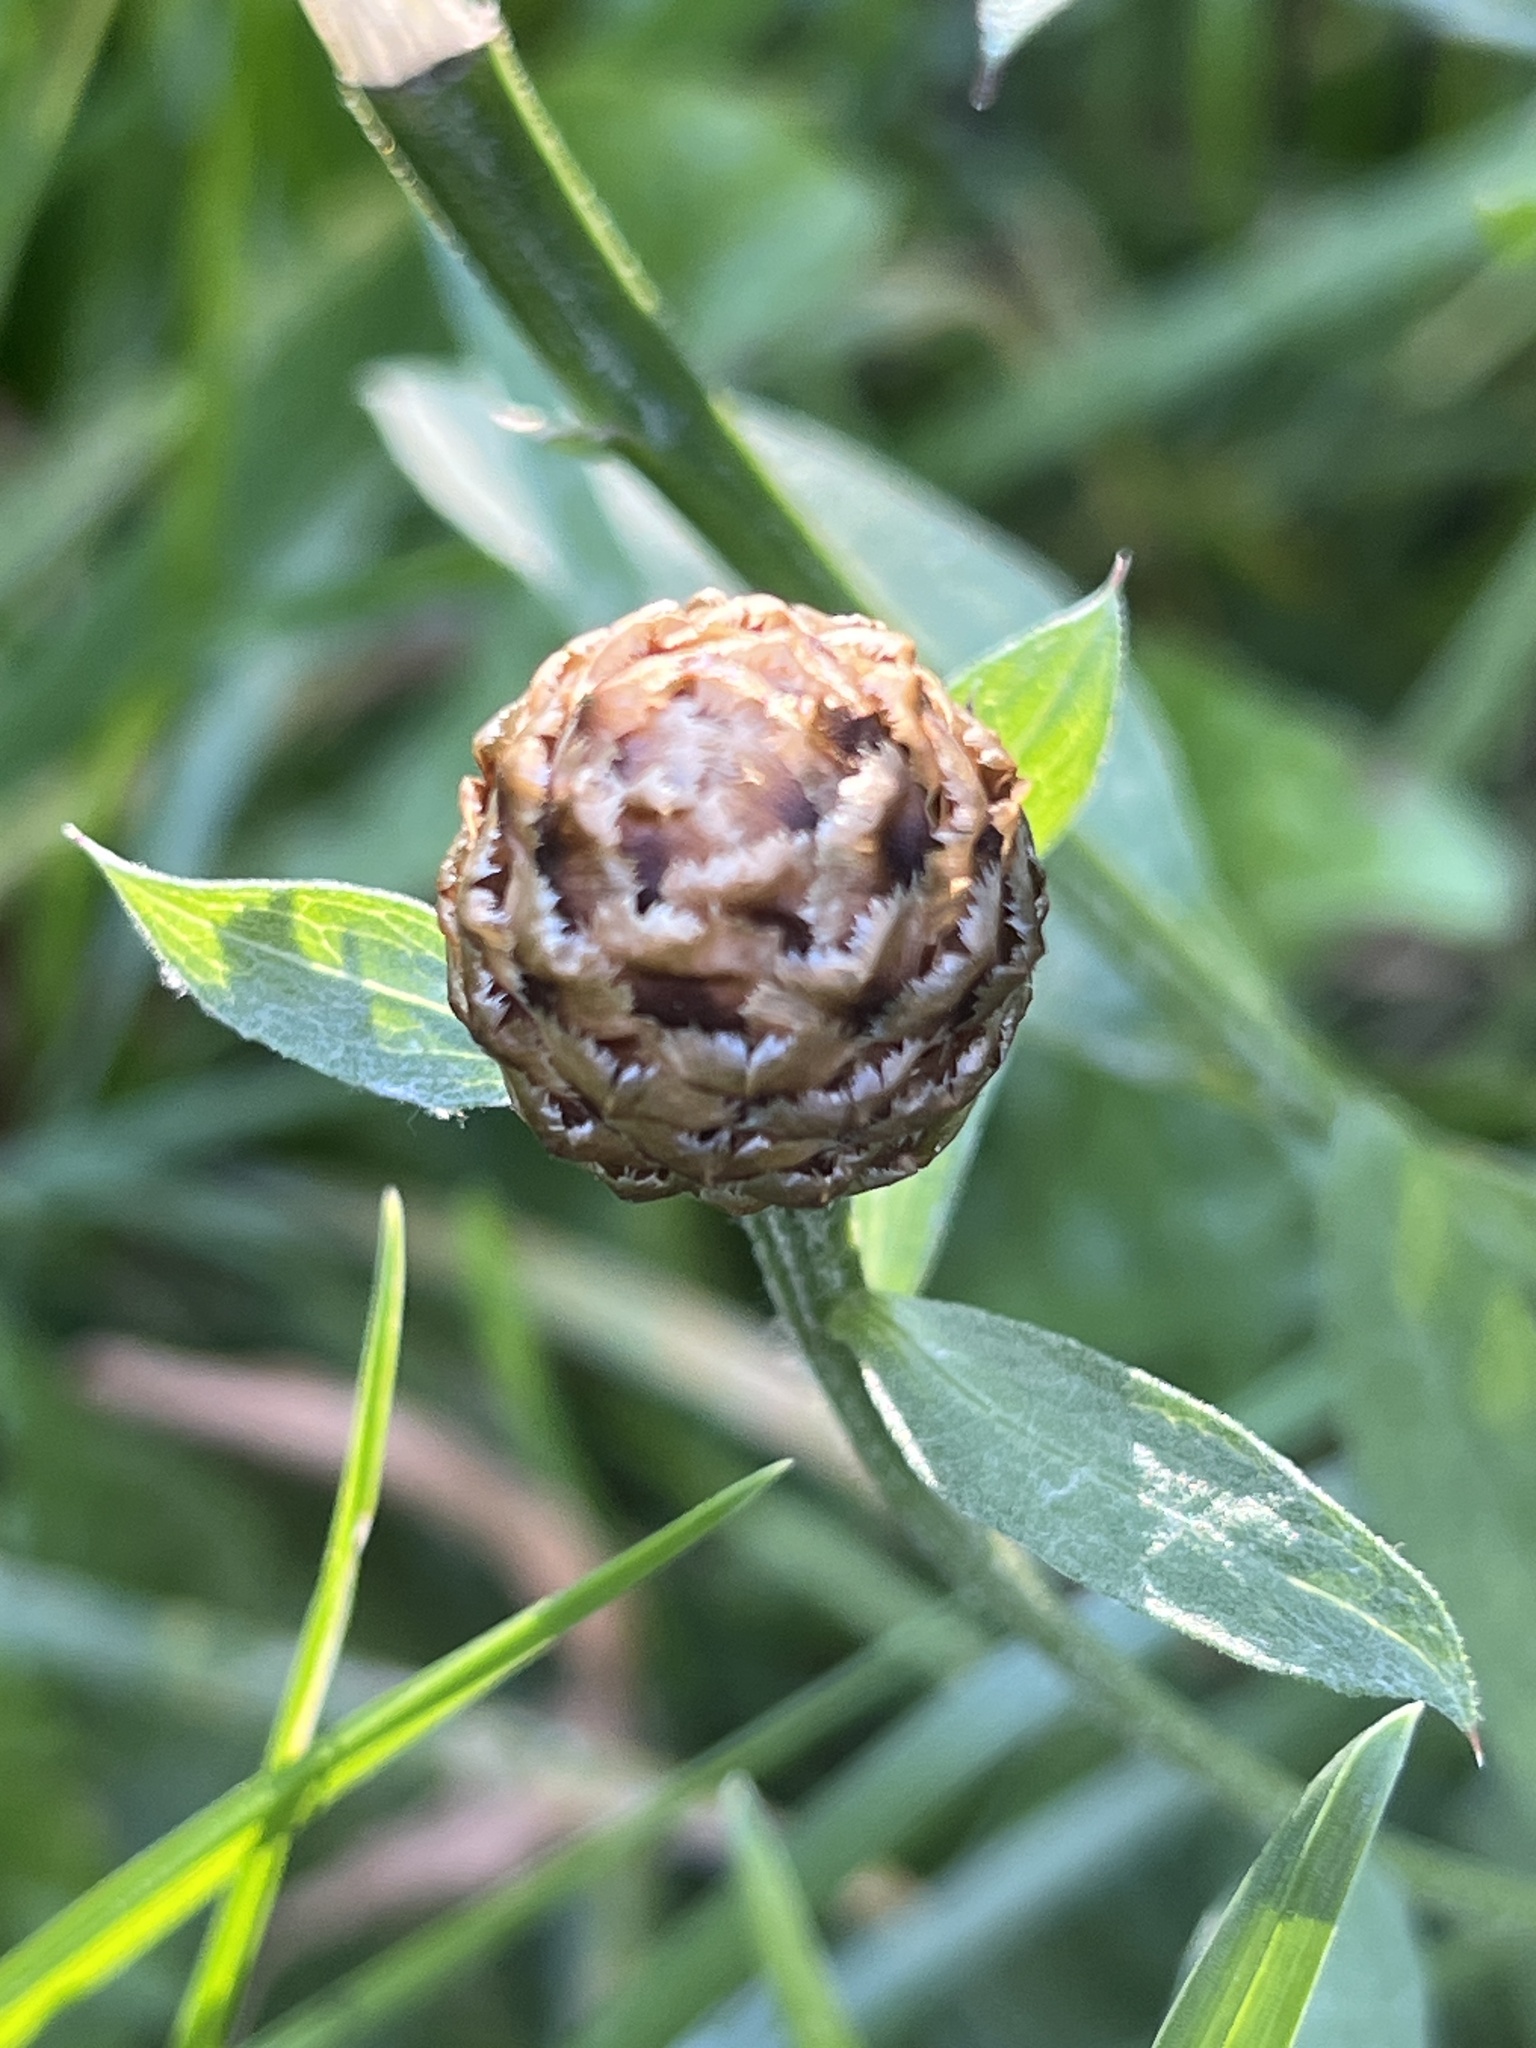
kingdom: Plantae
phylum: Tracheophyta
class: Magnoliopsida
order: Asterales
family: Asteraceae
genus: Centaurea
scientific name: Centaurea jacea
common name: Brown knapweed
